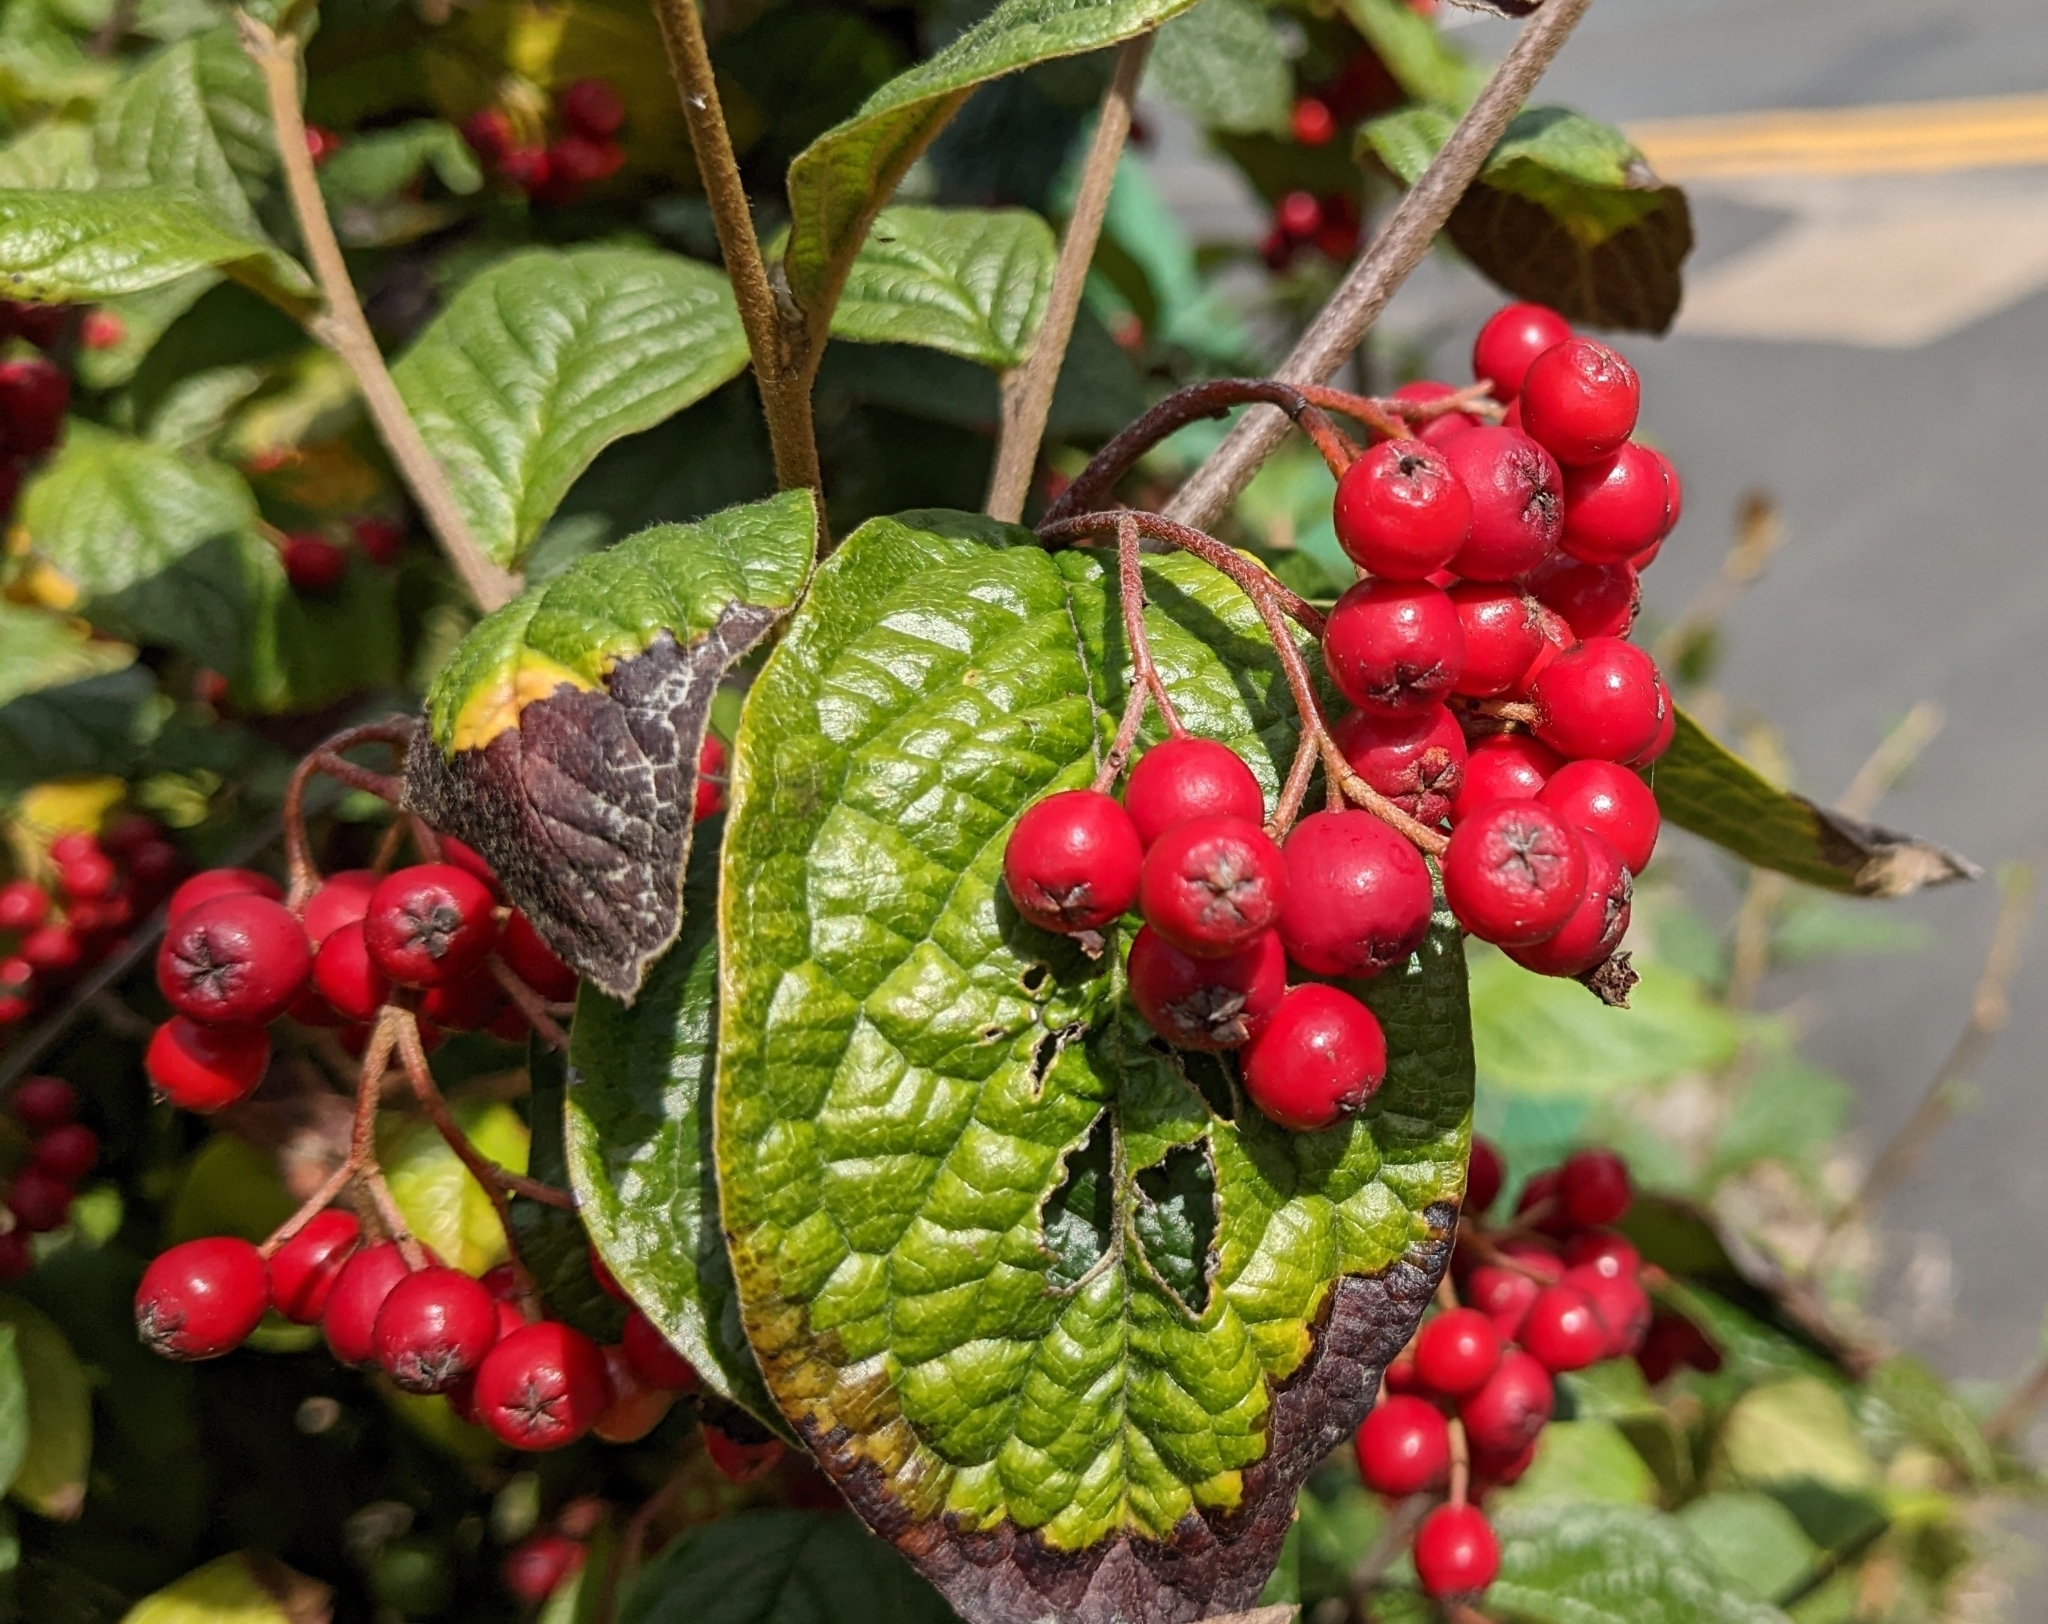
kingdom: Plantae
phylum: Tracheophyta
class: Magnoliopsida
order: Rosales
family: Rosaceae
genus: Cotoneaster
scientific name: Cotoneaster bullatus
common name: Hollyberry cotoneaster
